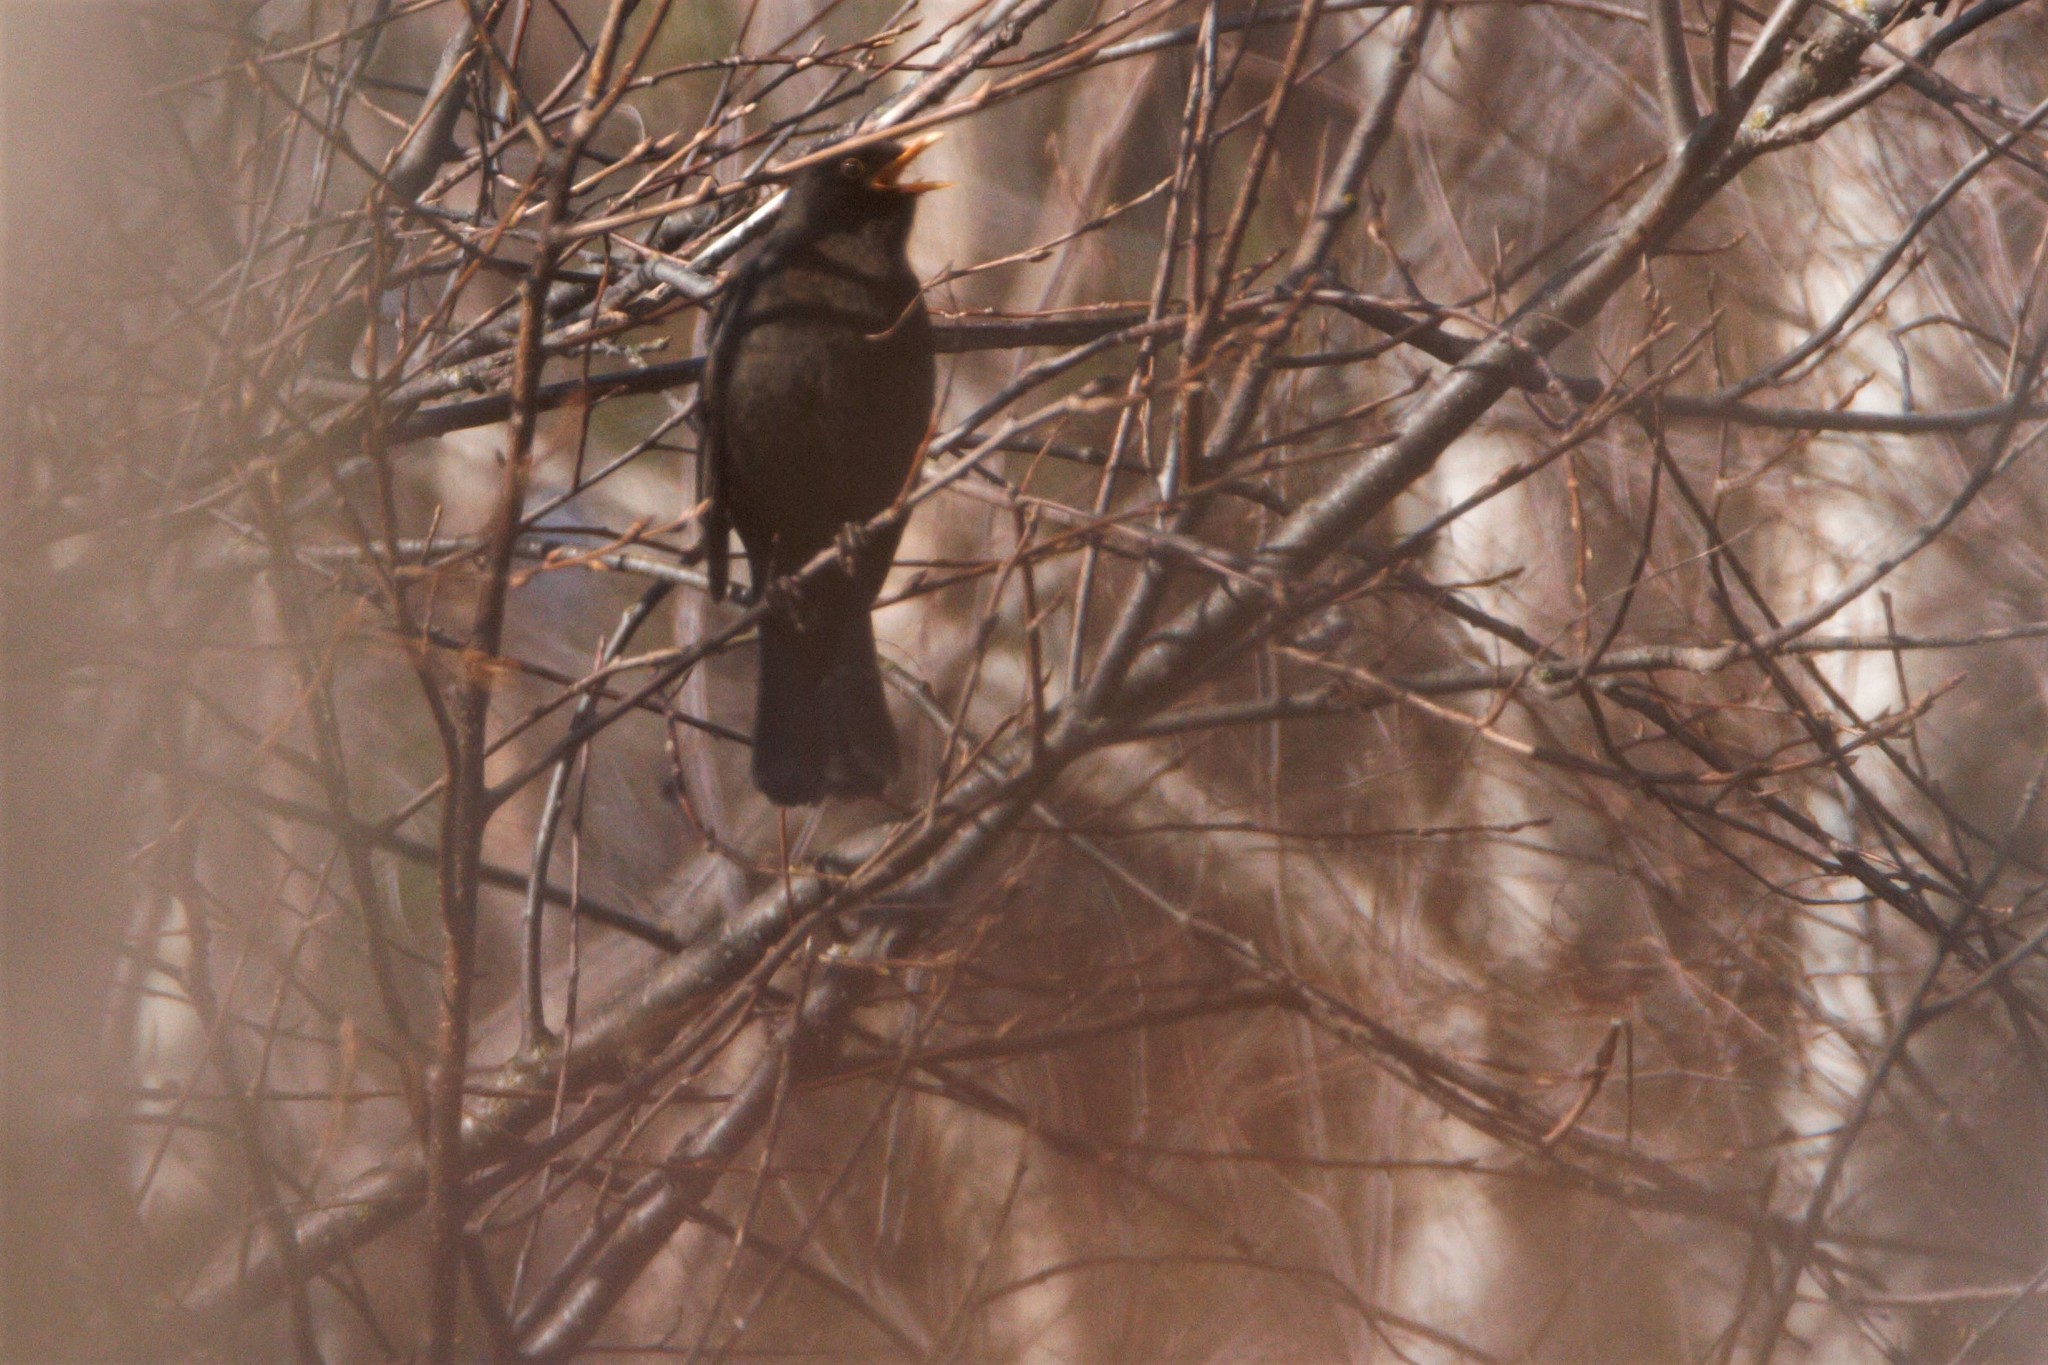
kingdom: Animalia
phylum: Chordata
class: Aves
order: Passeriformes
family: Turdidae
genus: Turdus
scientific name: Turdus merula
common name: Common blackbird
